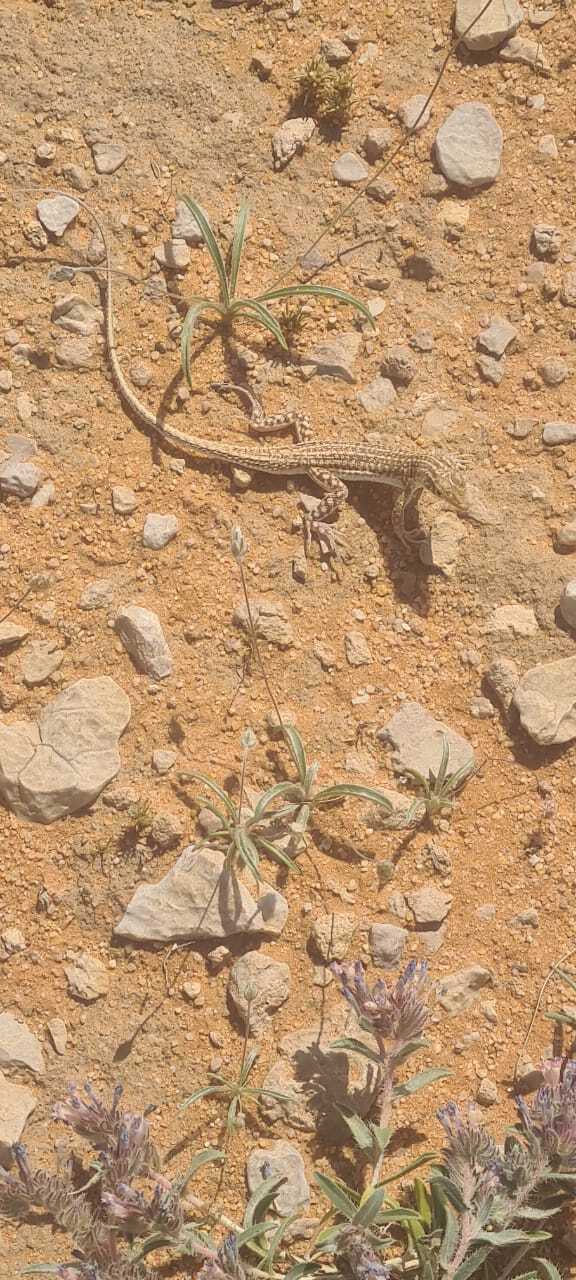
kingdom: Animalia
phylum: Chordata
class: Squamata
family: Lacertidae
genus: Acanthodactylus
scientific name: Acanthodactylus opheodurus
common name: Arnold's fringe-fingered lizard
